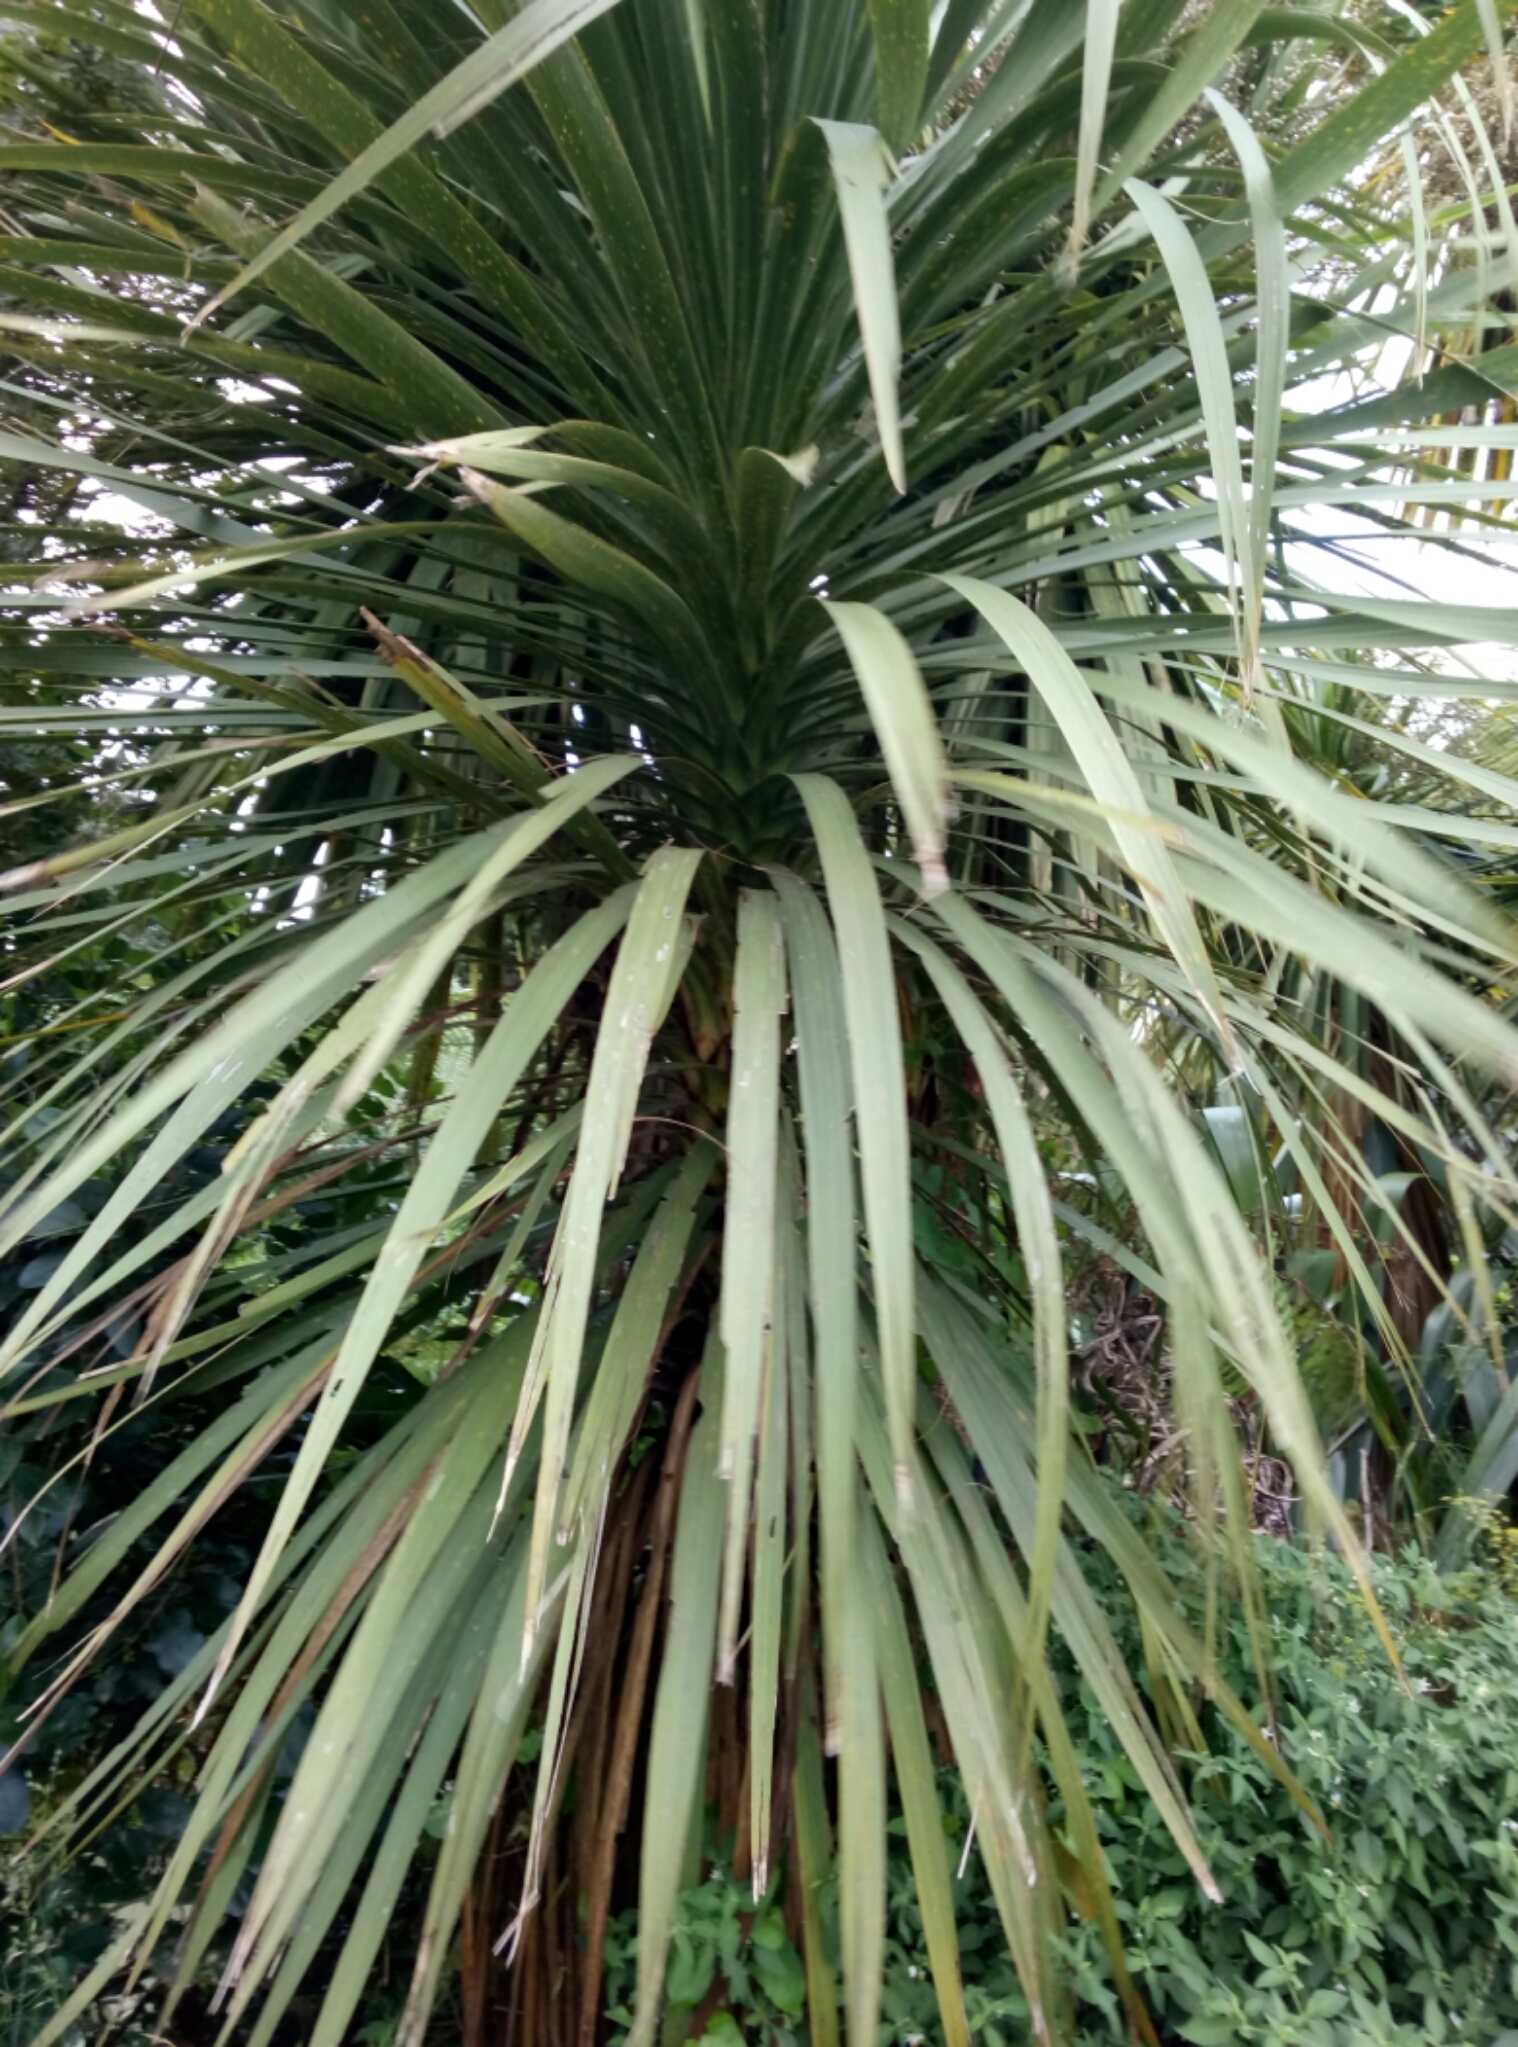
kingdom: Plantae
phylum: Tracheophyta
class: Liliopsida
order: Asparagales
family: Asparagaceae
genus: Cordyline
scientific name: Cordyline australis
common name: Cabbage-palm
